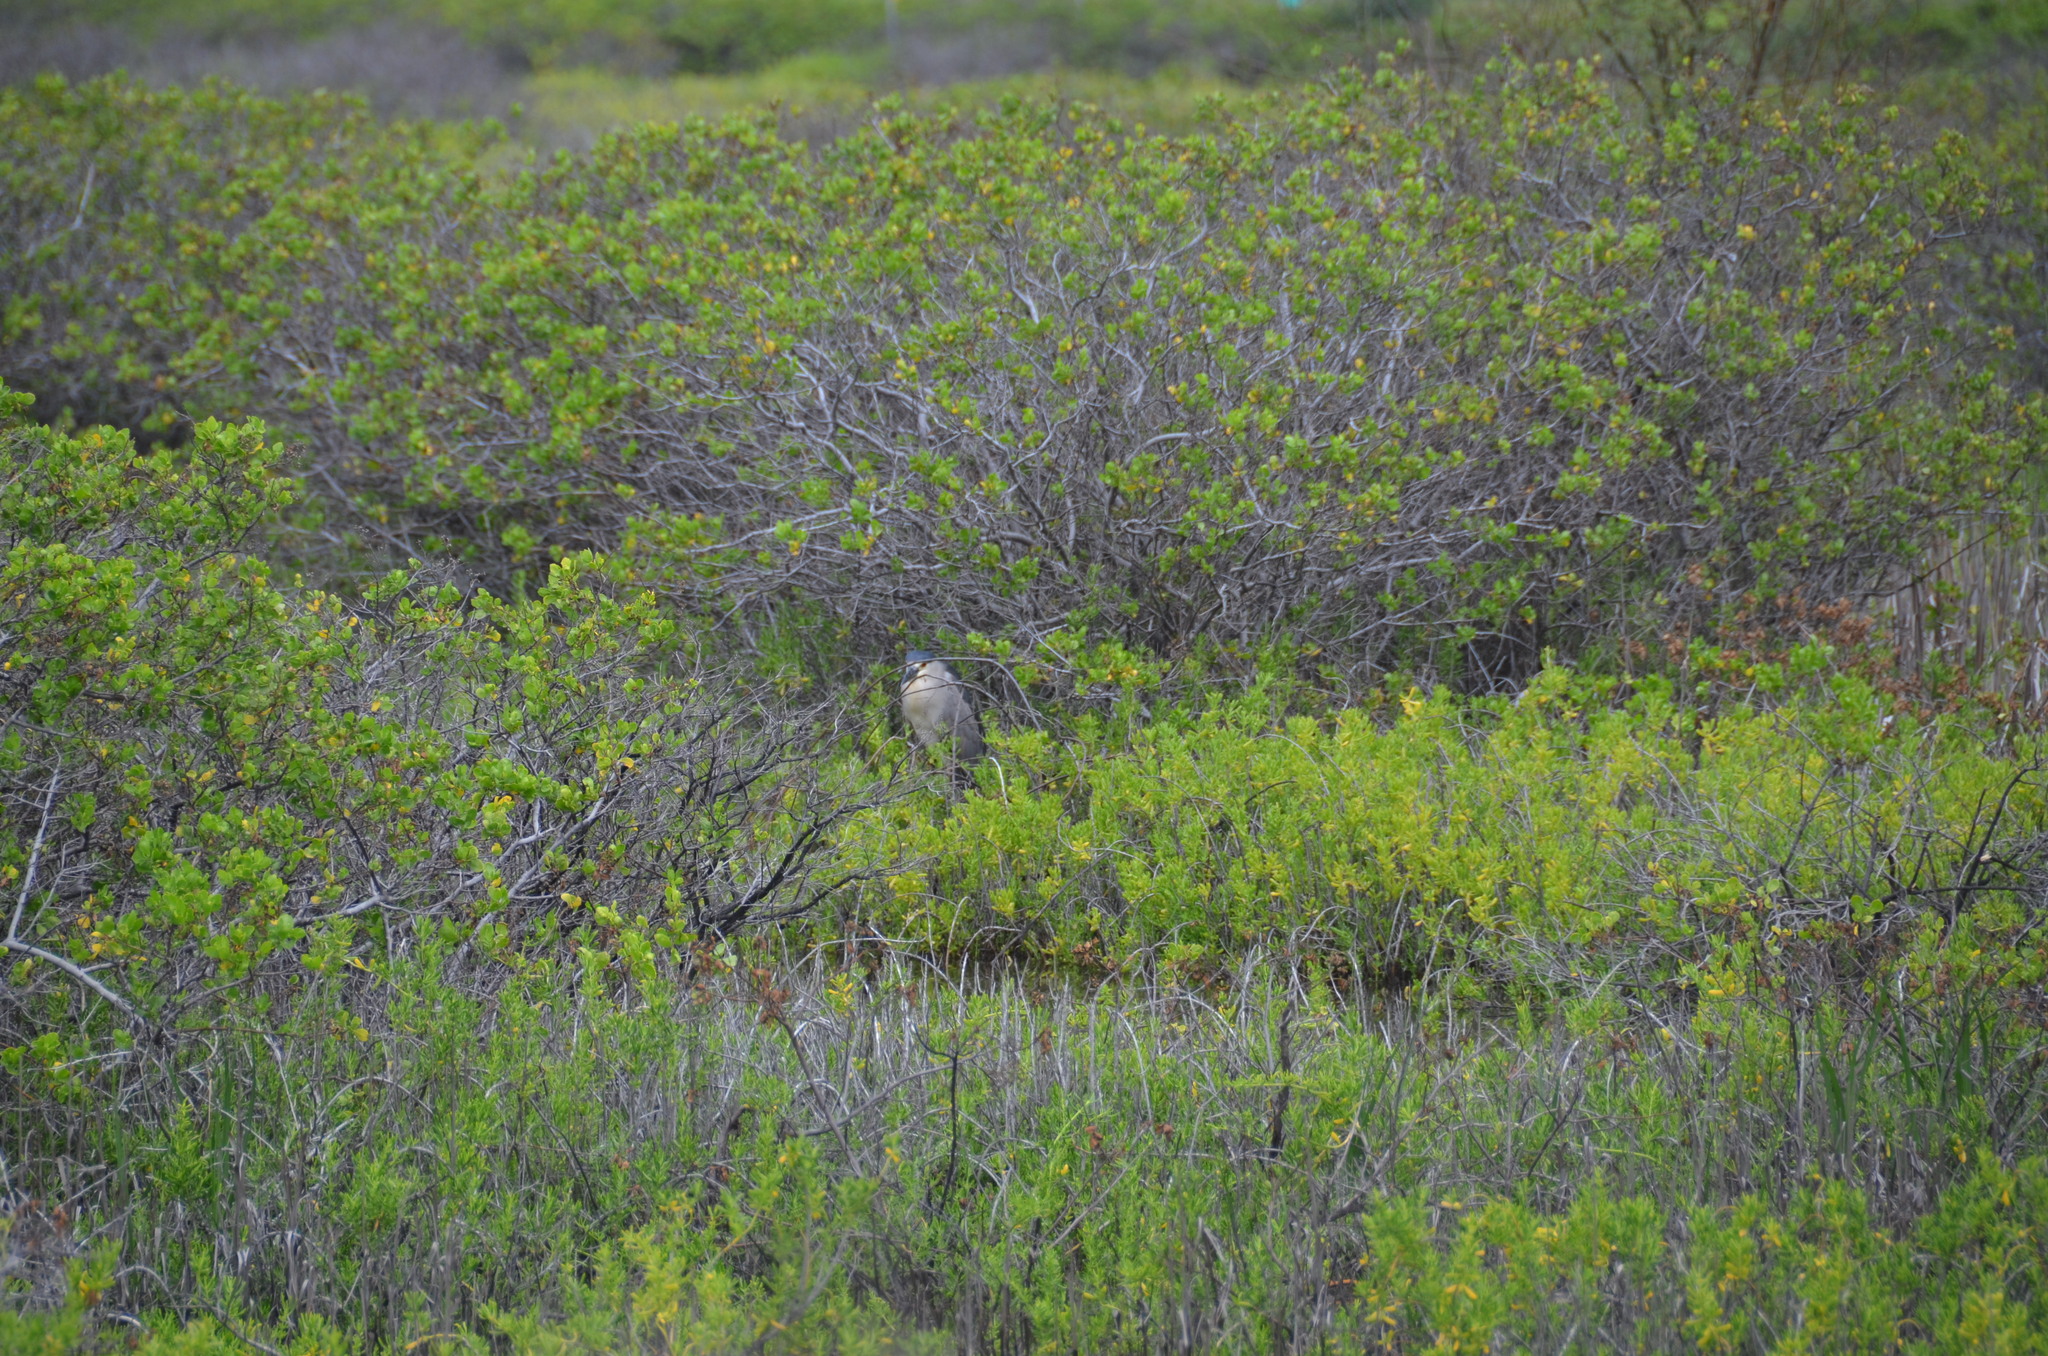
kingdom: Animalia
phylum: Chordata
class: Aves
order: Pelecaniformes
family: Ardeidae
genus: Nycticorax
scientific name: Nycticorax nycticorax
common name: Black-crowned night heron
